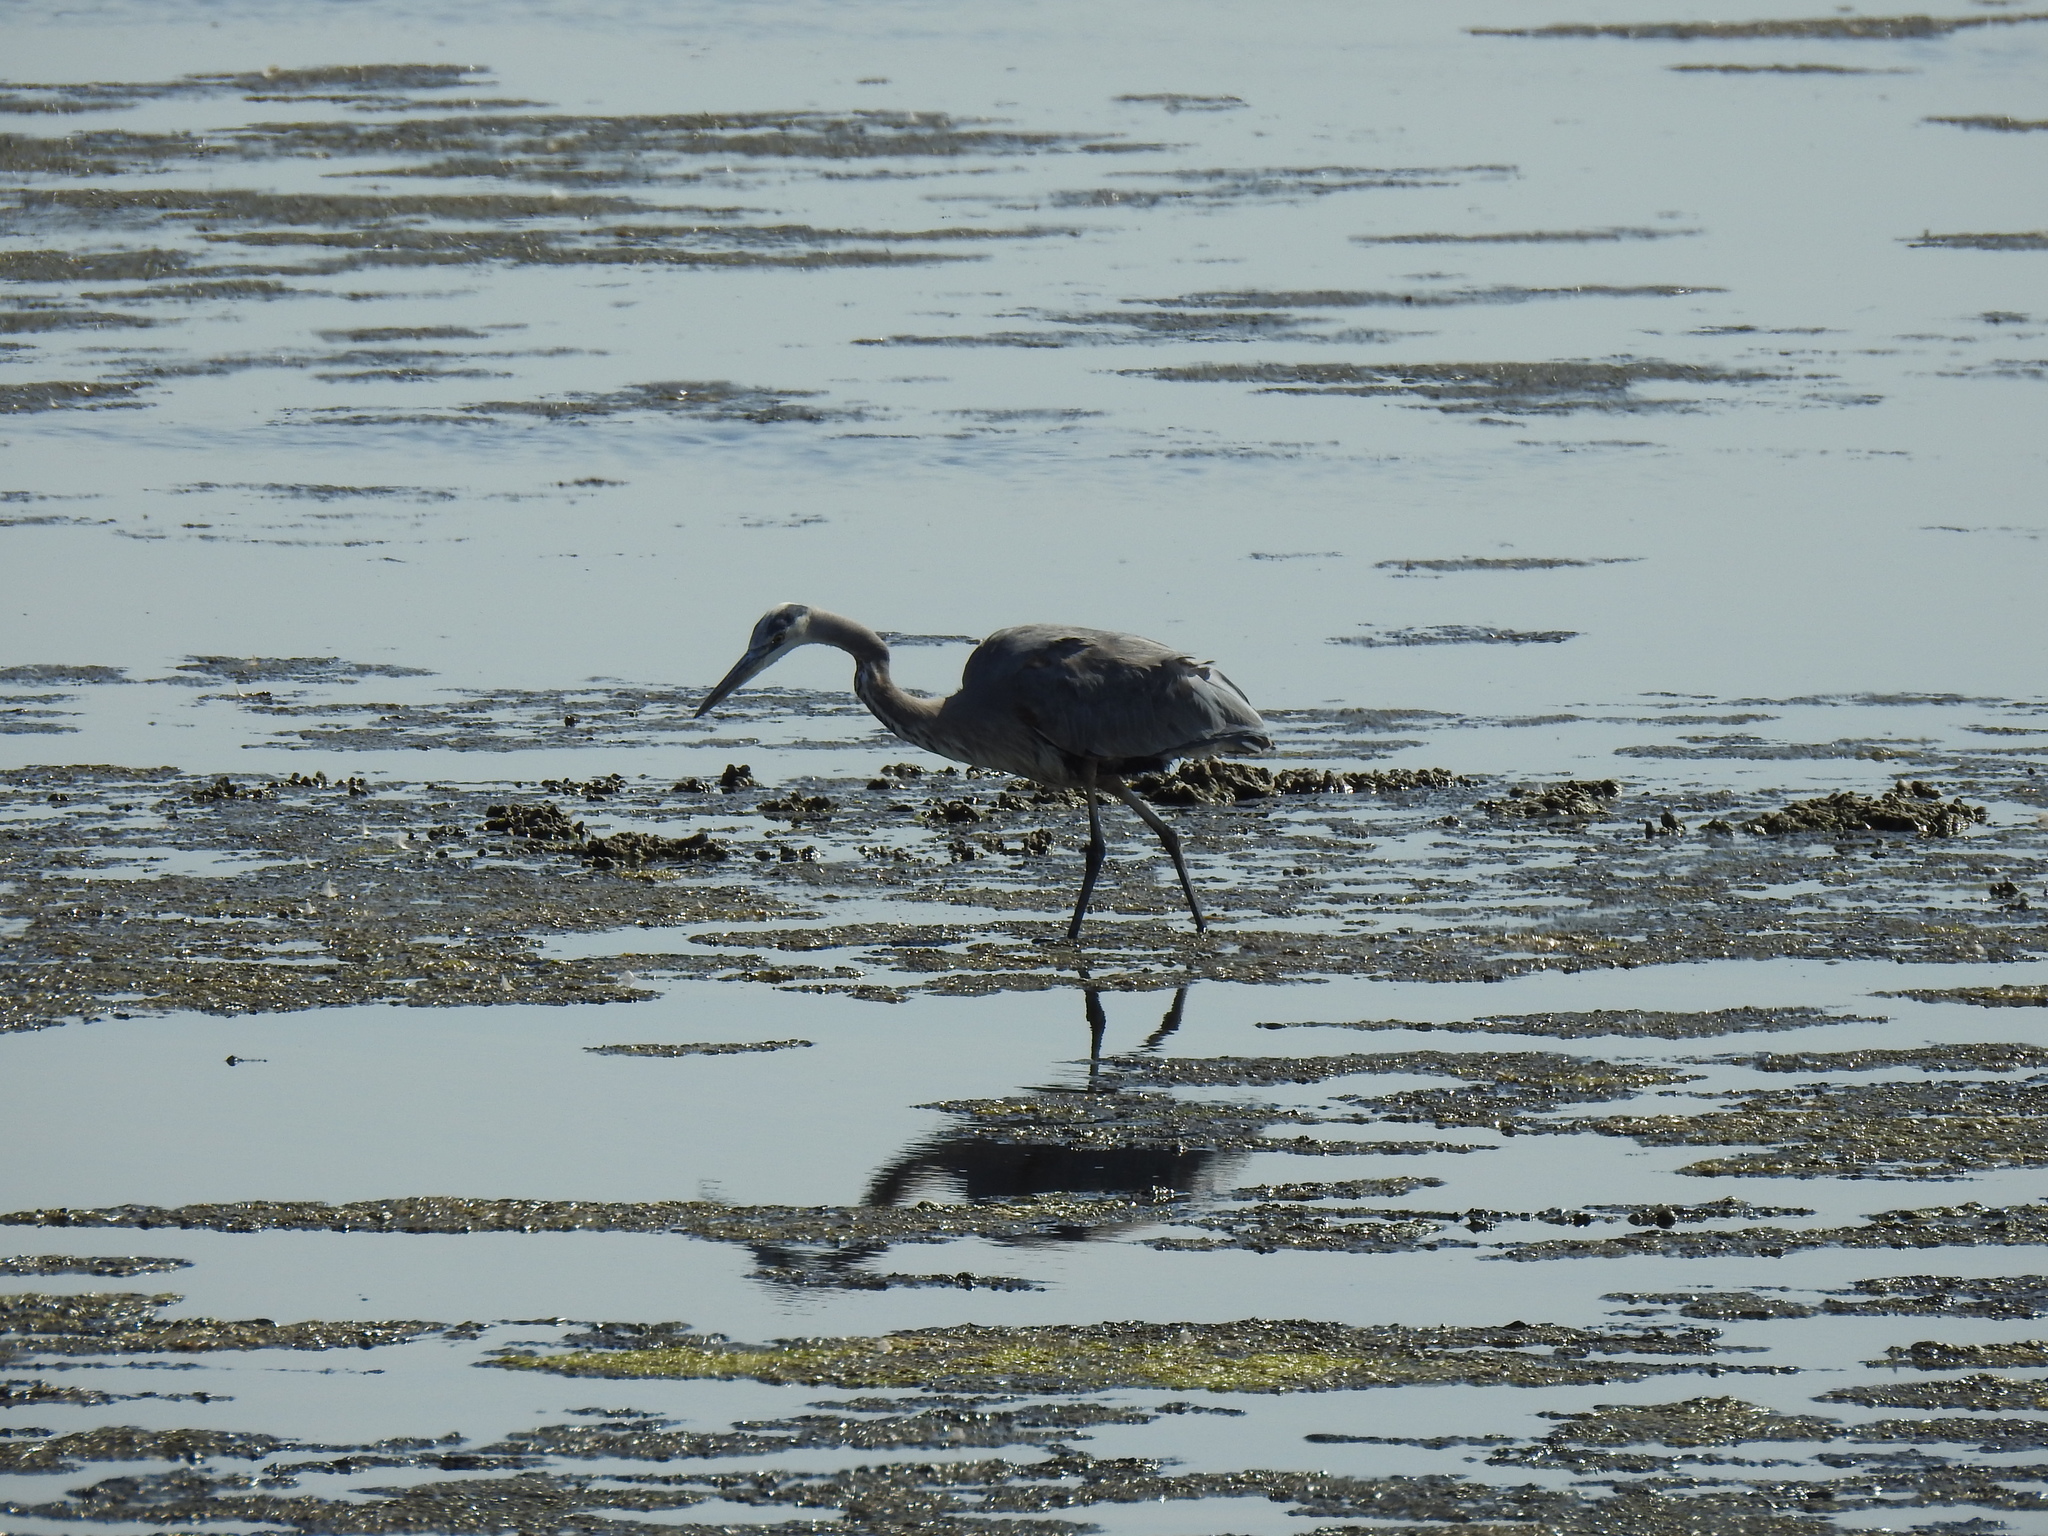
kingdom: Animalia
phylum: Chordata
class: Aves
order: Pelecaniformes
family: Ardeidae
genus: Ardea
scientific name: Ardea herodias
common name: Great blue heron
